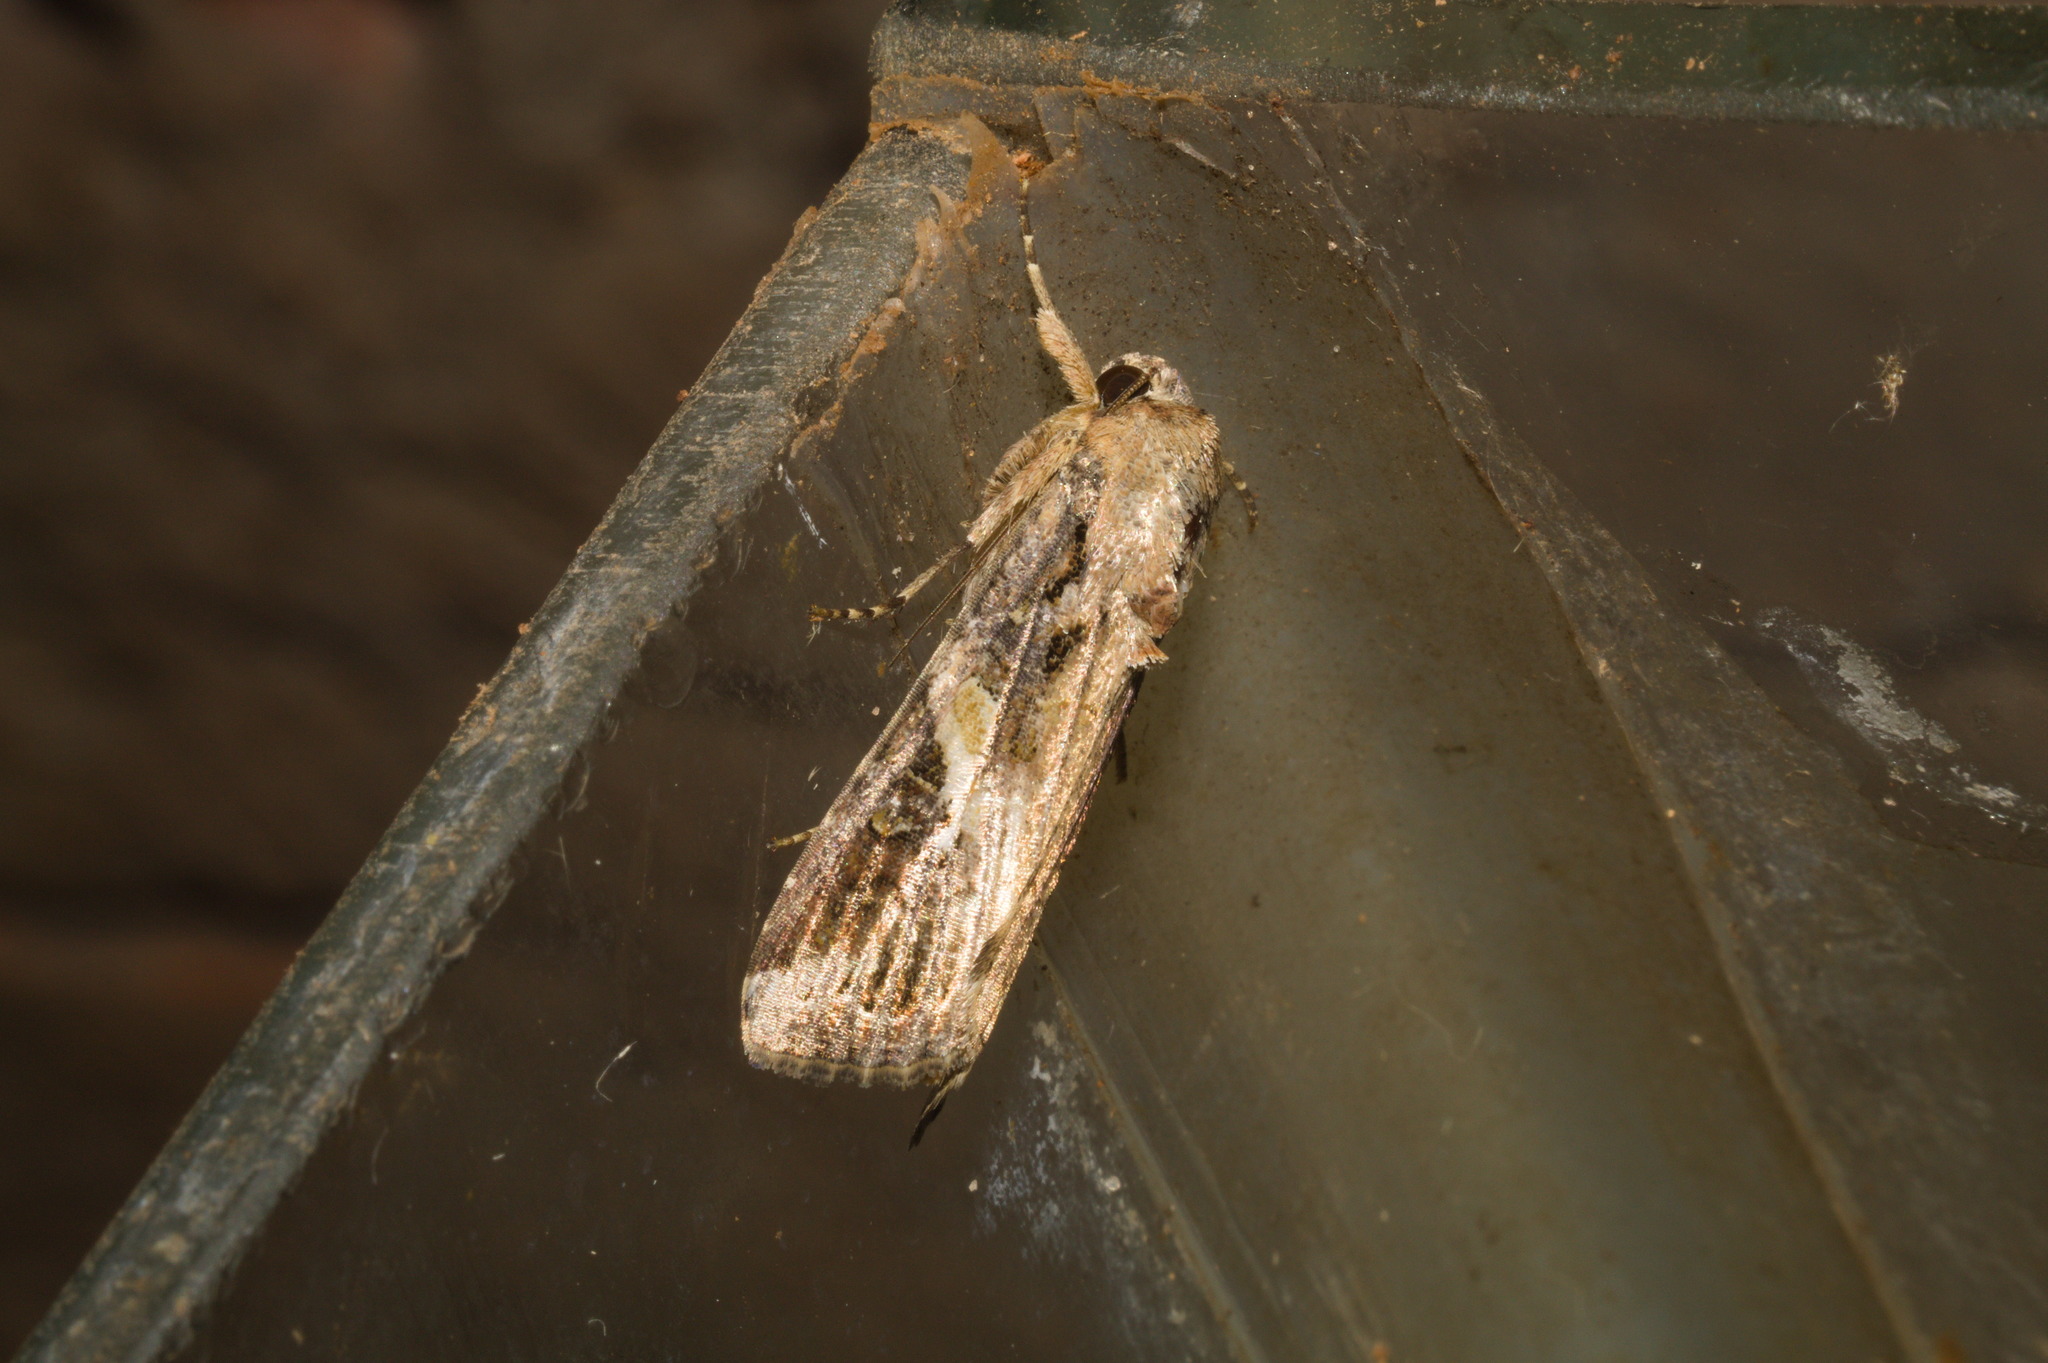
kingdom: Animalia
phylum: Arthropoda
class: Insecta
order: Lepidoptera
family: Noctuidae
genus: Spodoptera
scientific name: Spodoptera frugiperda
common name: Fall armyworm
